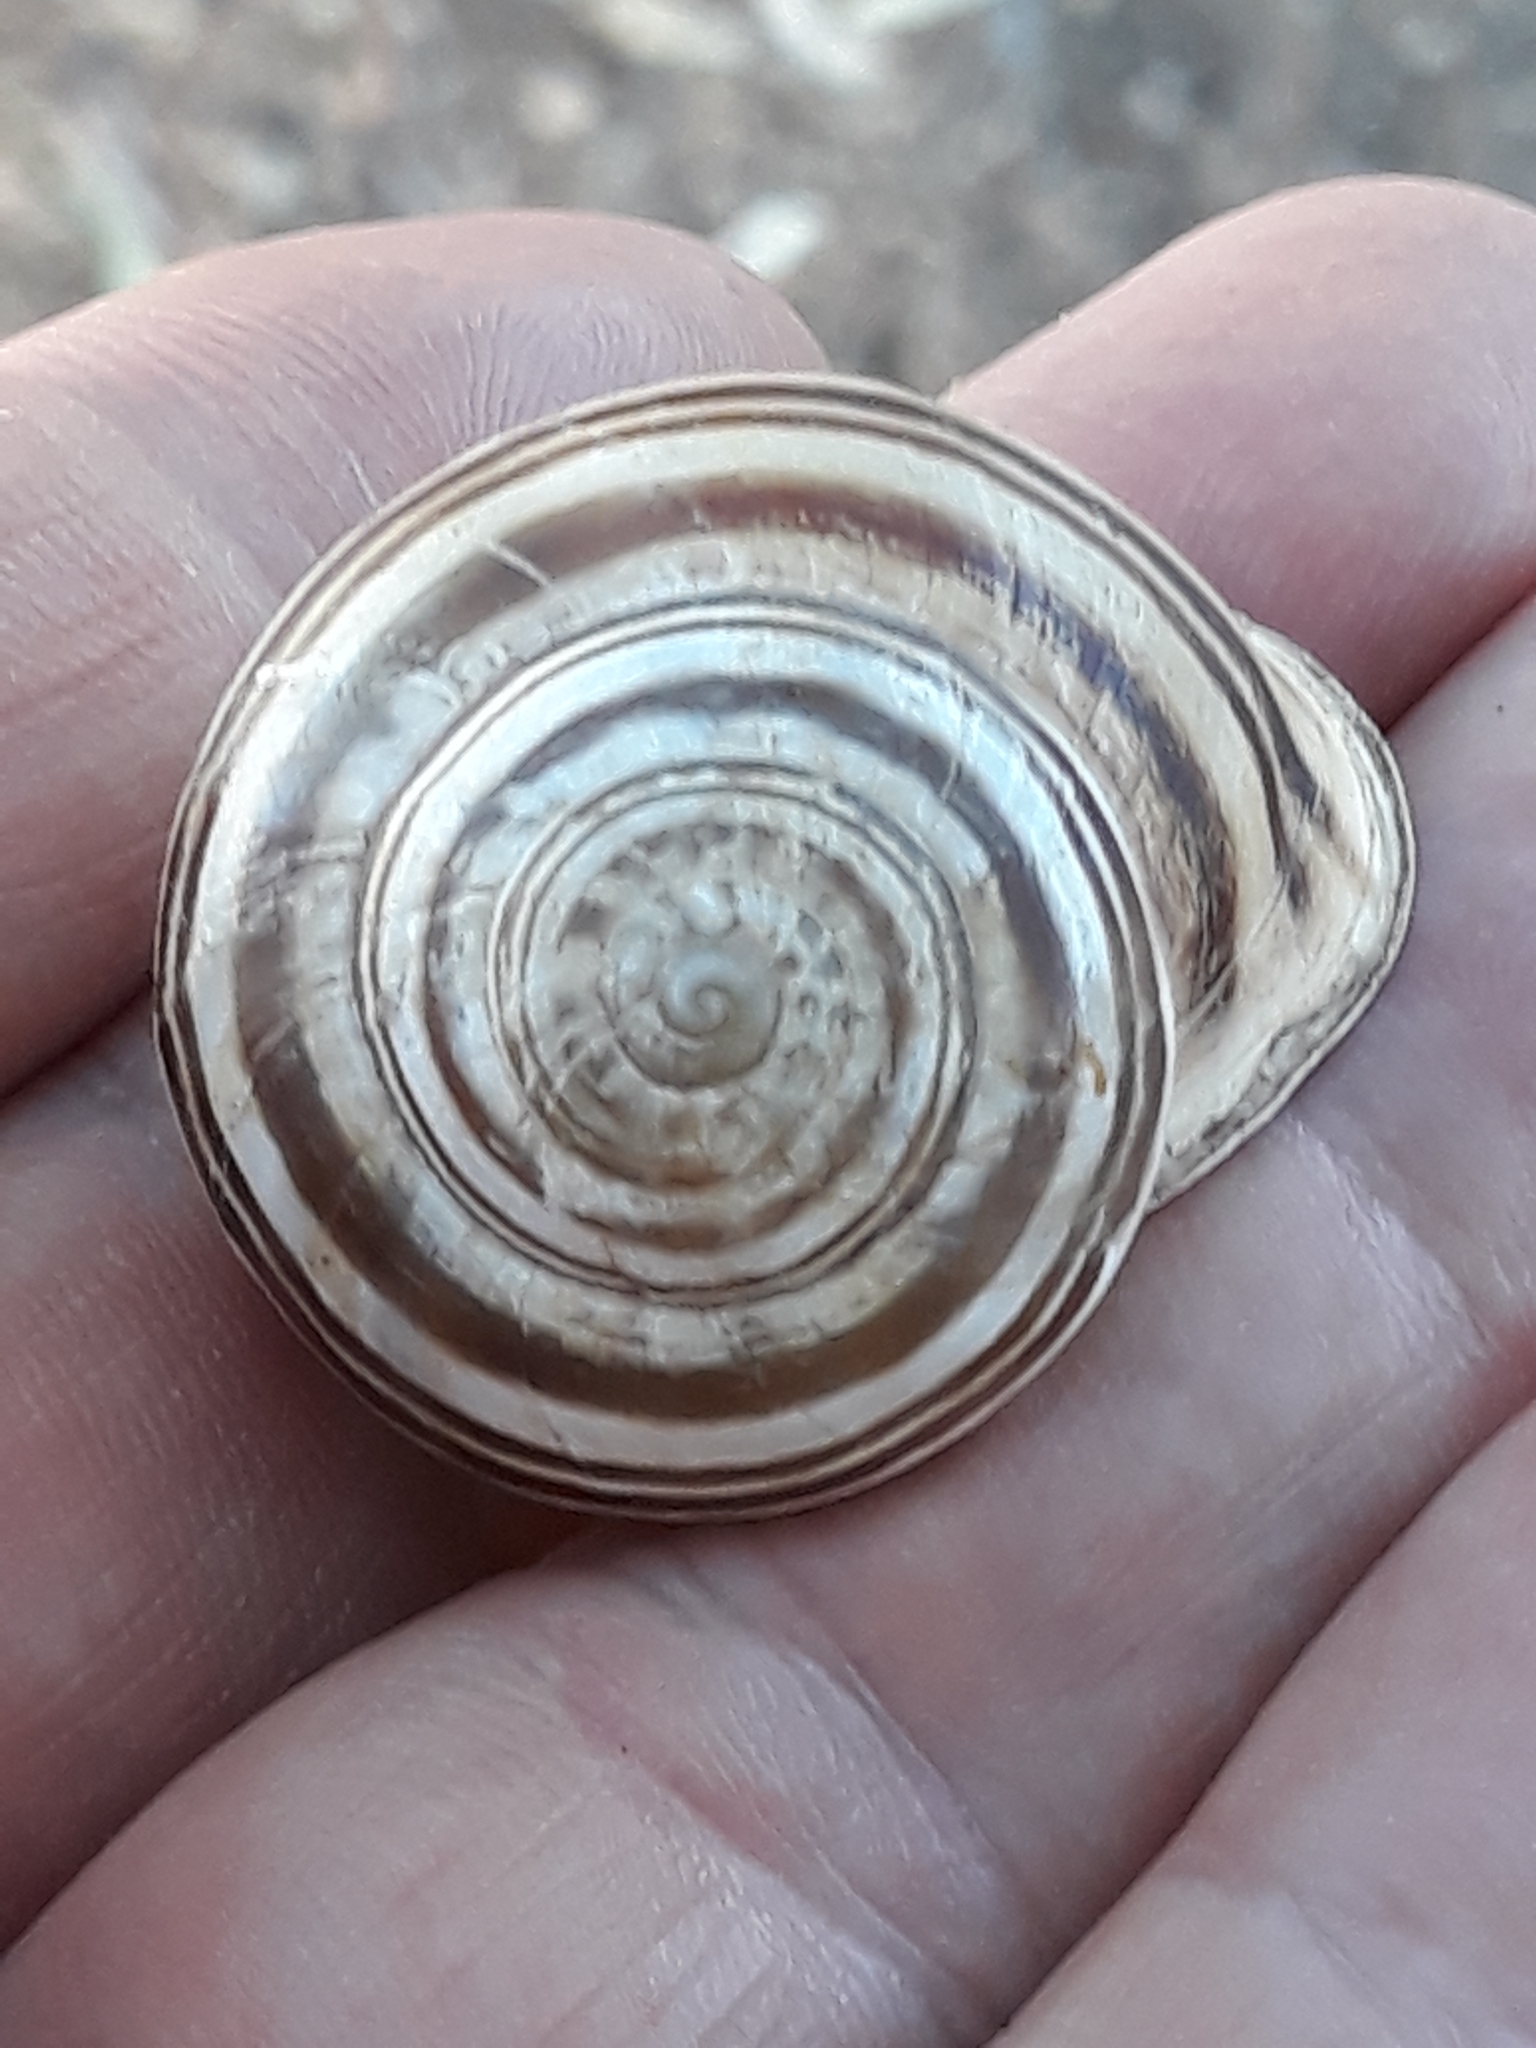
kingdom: Animalia
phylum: Mollusca
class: Gastropoda
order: Stylommatophora
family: Helicidae
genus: Eobania
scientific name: Eobania constantina
